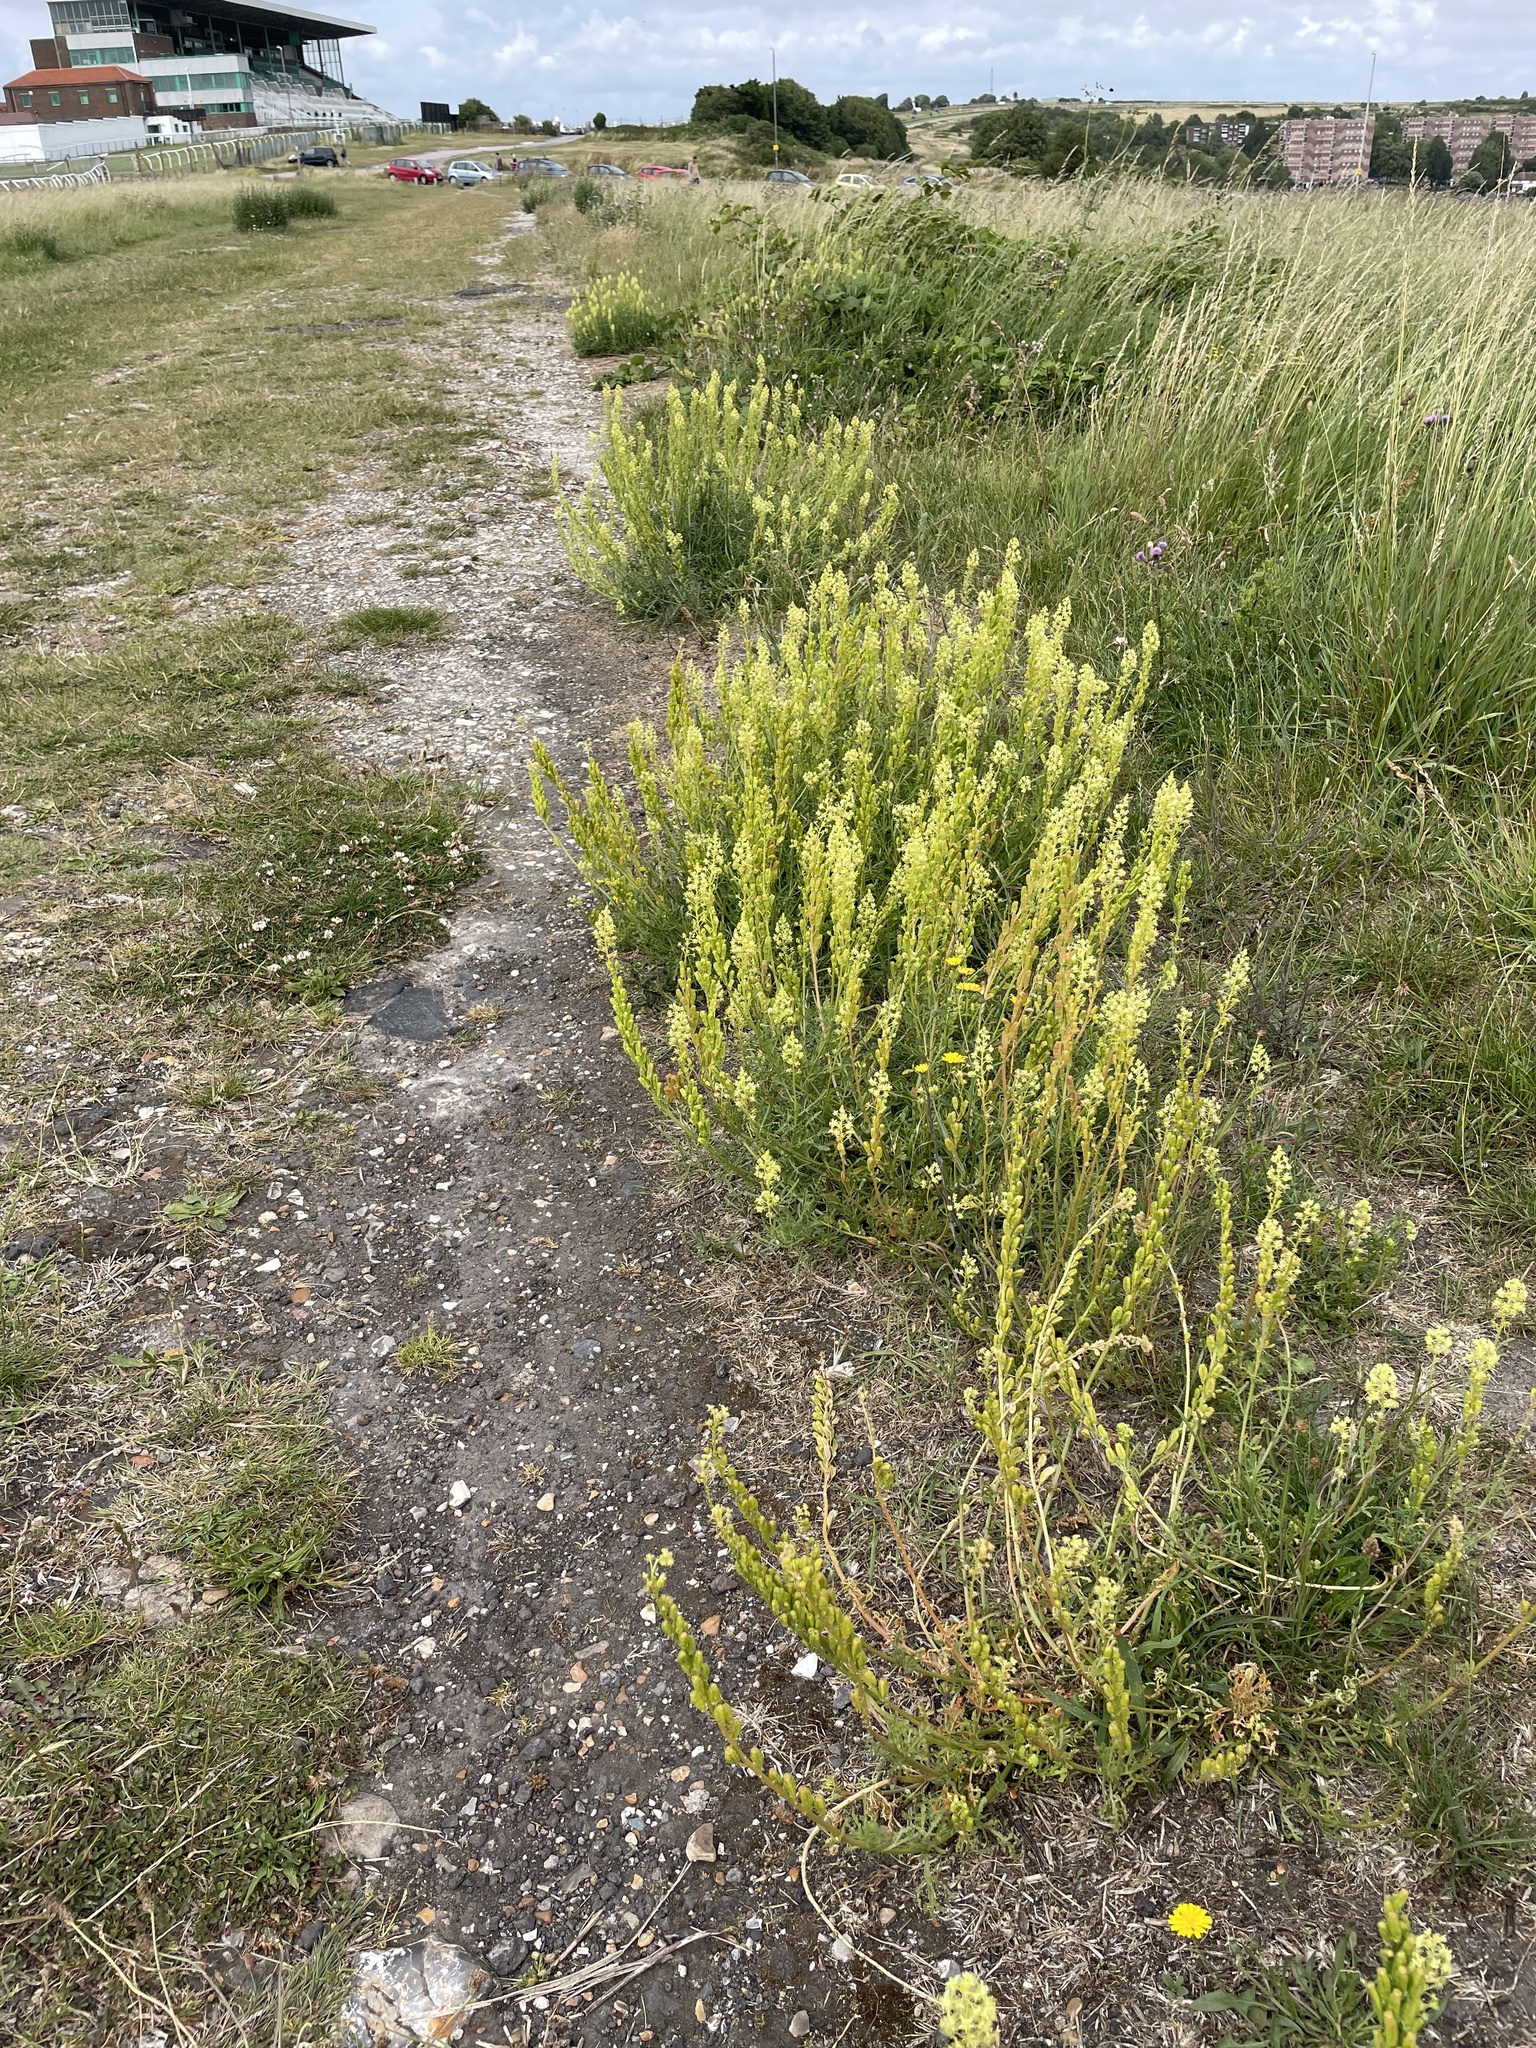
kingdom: Plantae
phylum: Tracheophyta
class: Magnoliopsida
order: Brassicales
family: Resedaceae
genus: Reseda
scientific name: Reseda lutea
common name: Wild mignonette
